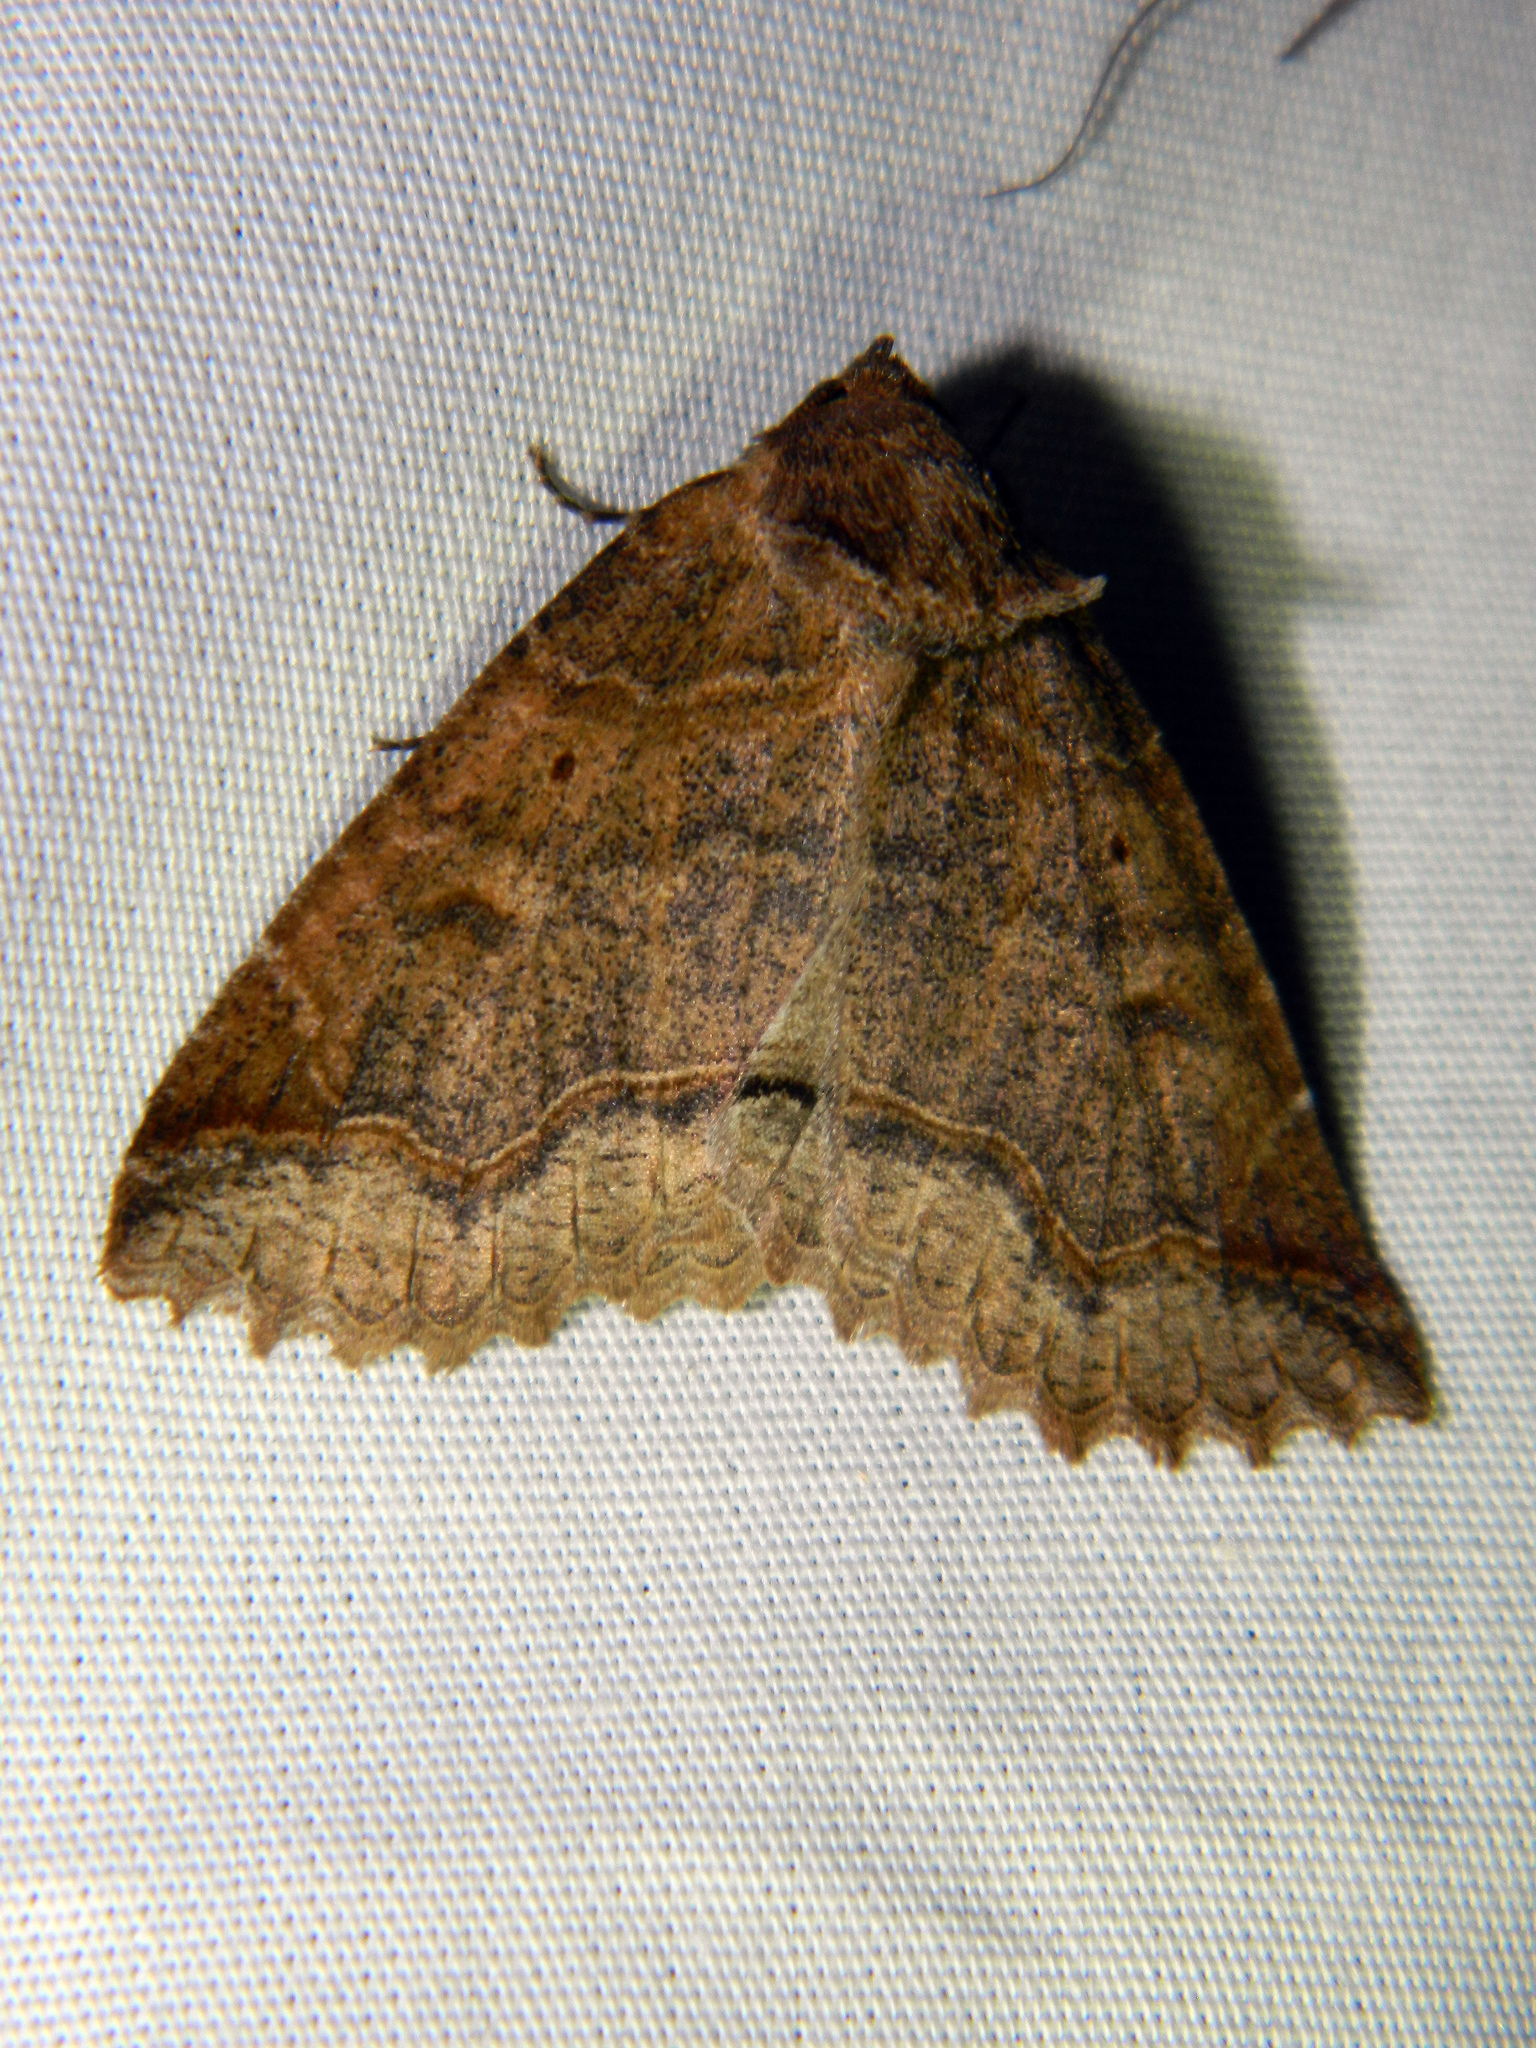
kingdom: Animalia
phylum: Arthropoda
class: Insecta
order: Lepidoptera
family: Erebidae
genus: Zale
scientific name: Zale unilineata
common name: One-lined zale moth
